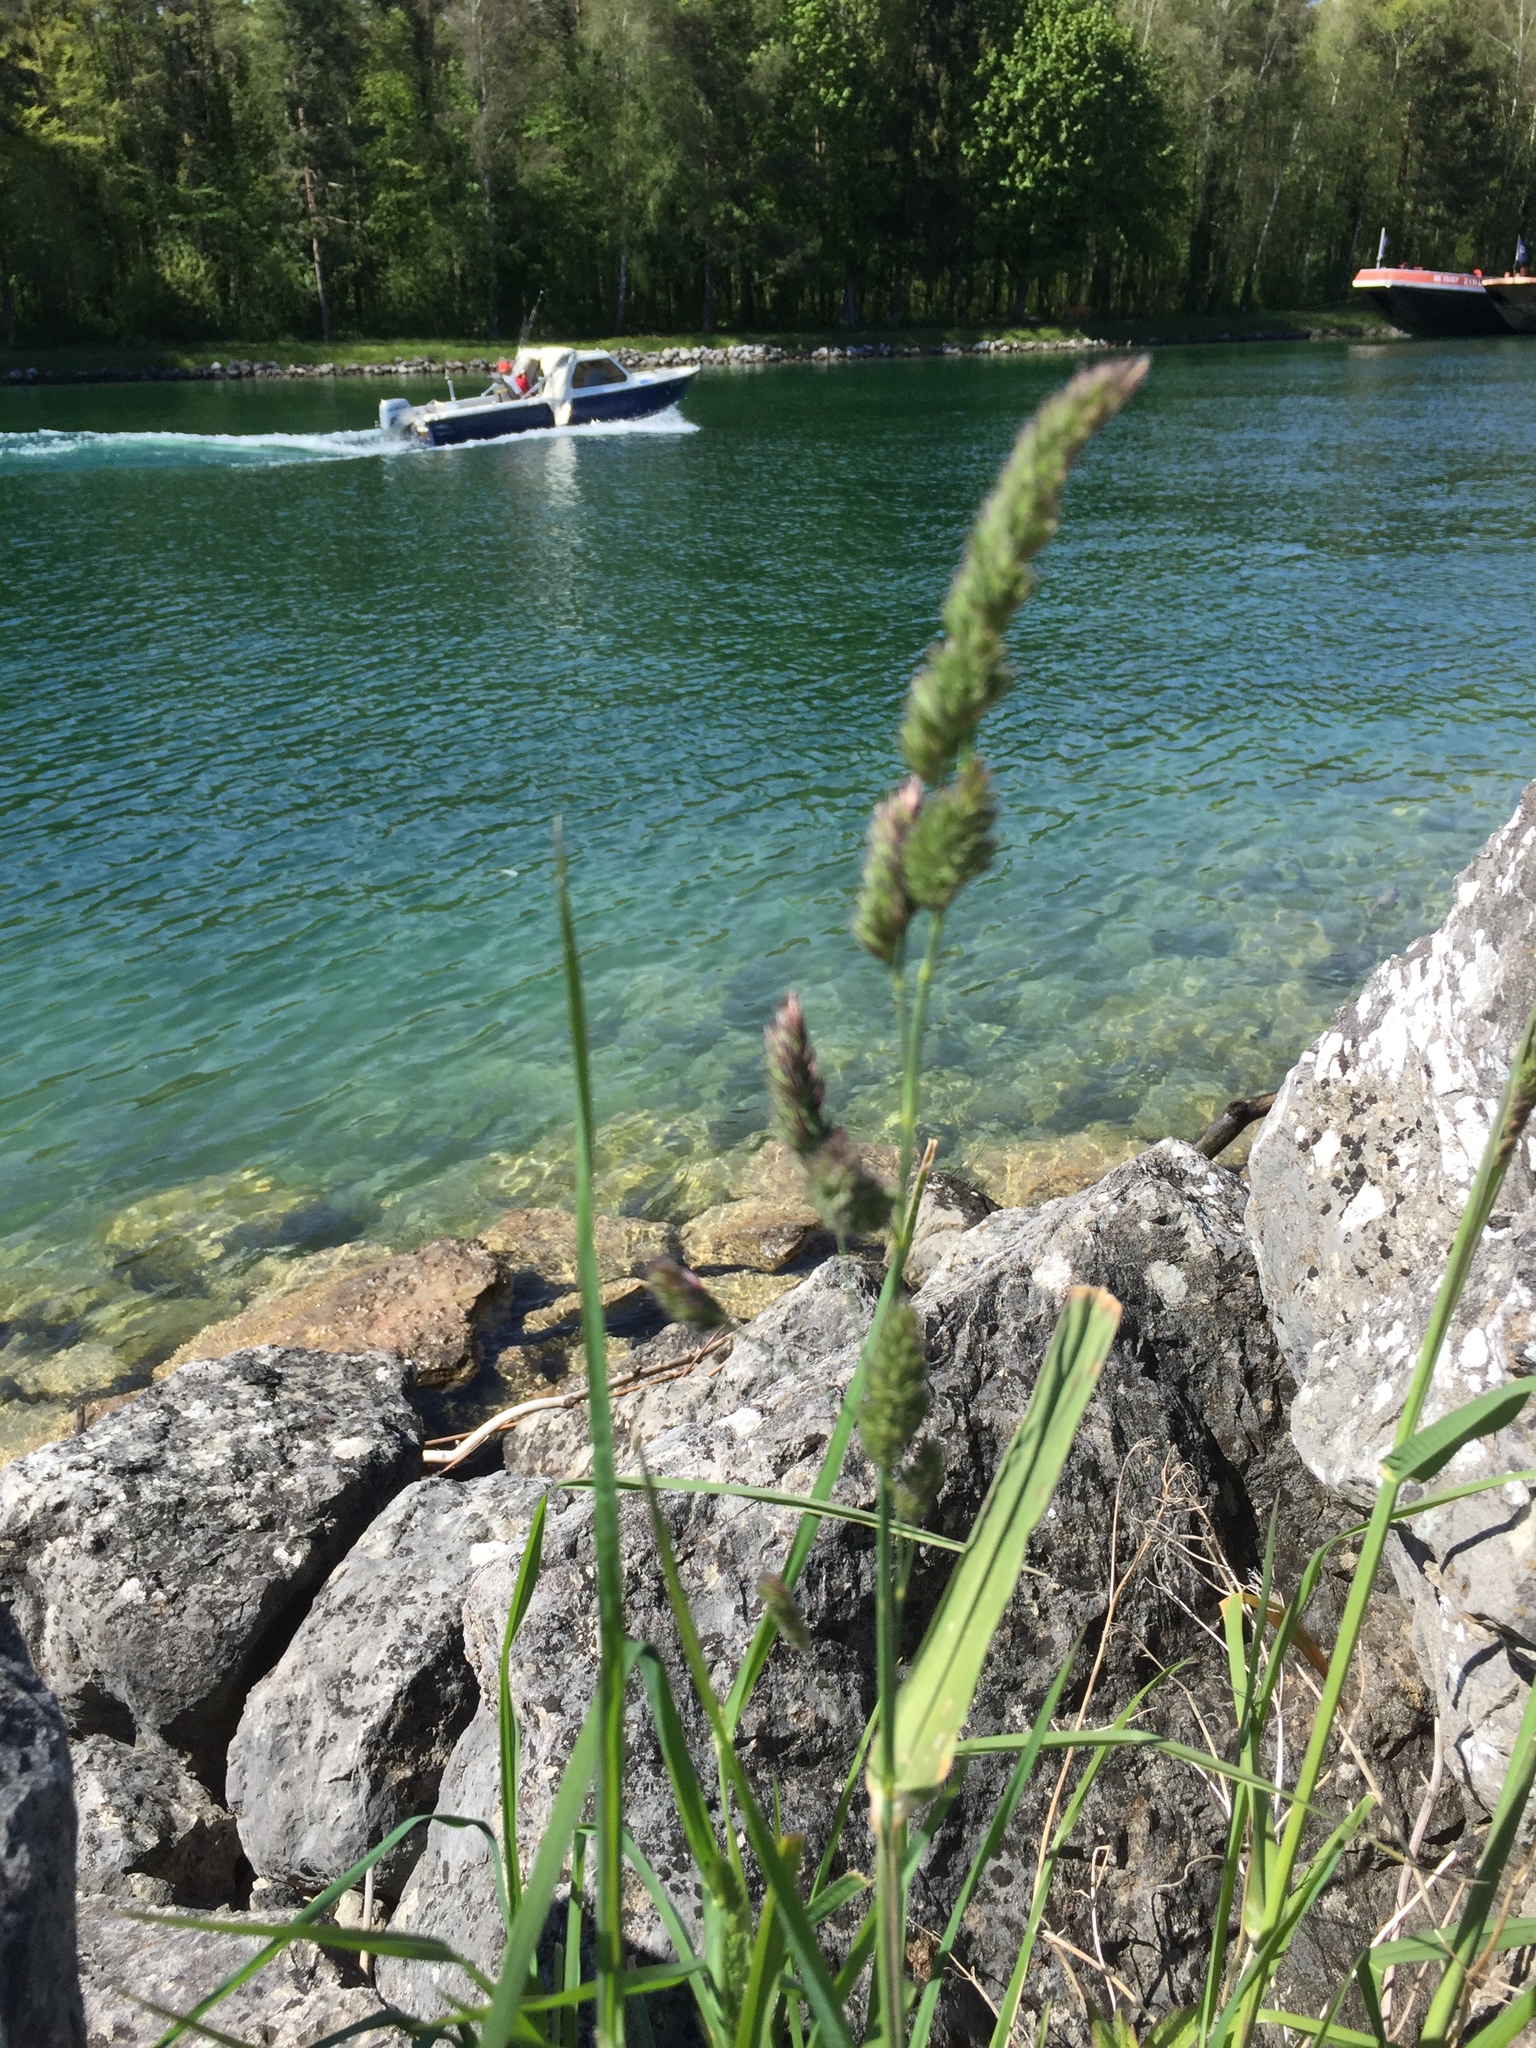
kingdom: Plantae
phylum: Tracheophyta
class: Liliopsida
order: Poales
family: Poaceae
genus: Dactylis
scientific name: Dactylis glomerata
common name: Orchardgrass
